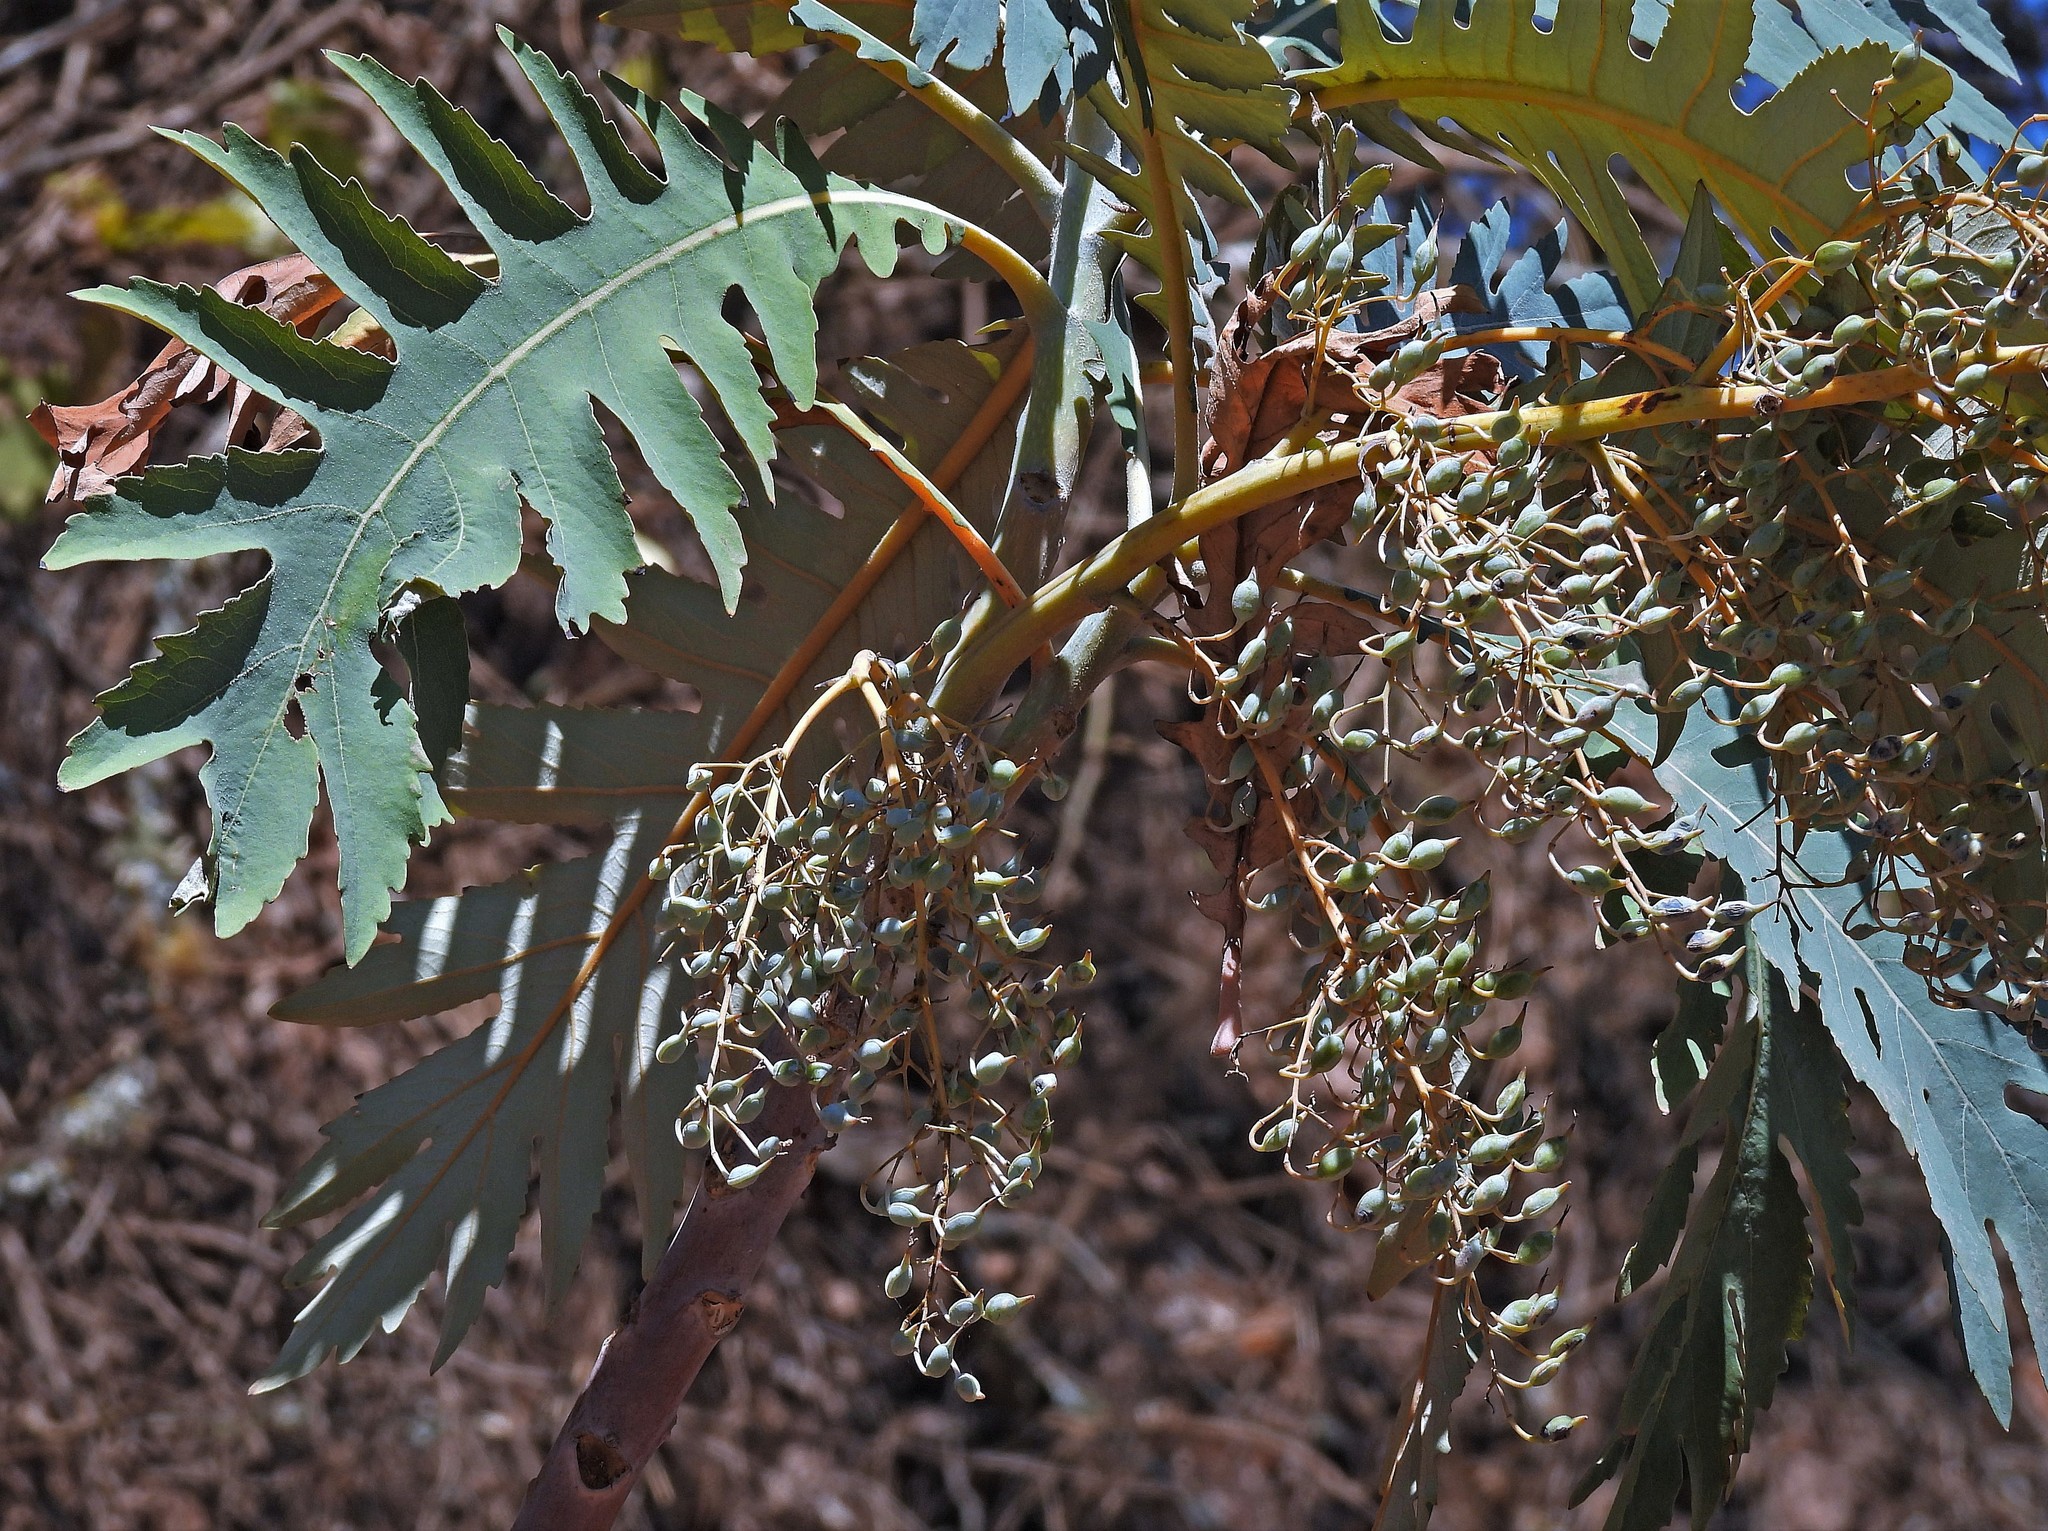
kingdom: Plantae
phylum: Tracheophyta
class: Magnoliopsida
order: Ranunculales
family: Papaveraceae
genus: Bocconia
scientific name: Bocconia frutescens
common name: Tree poppy
